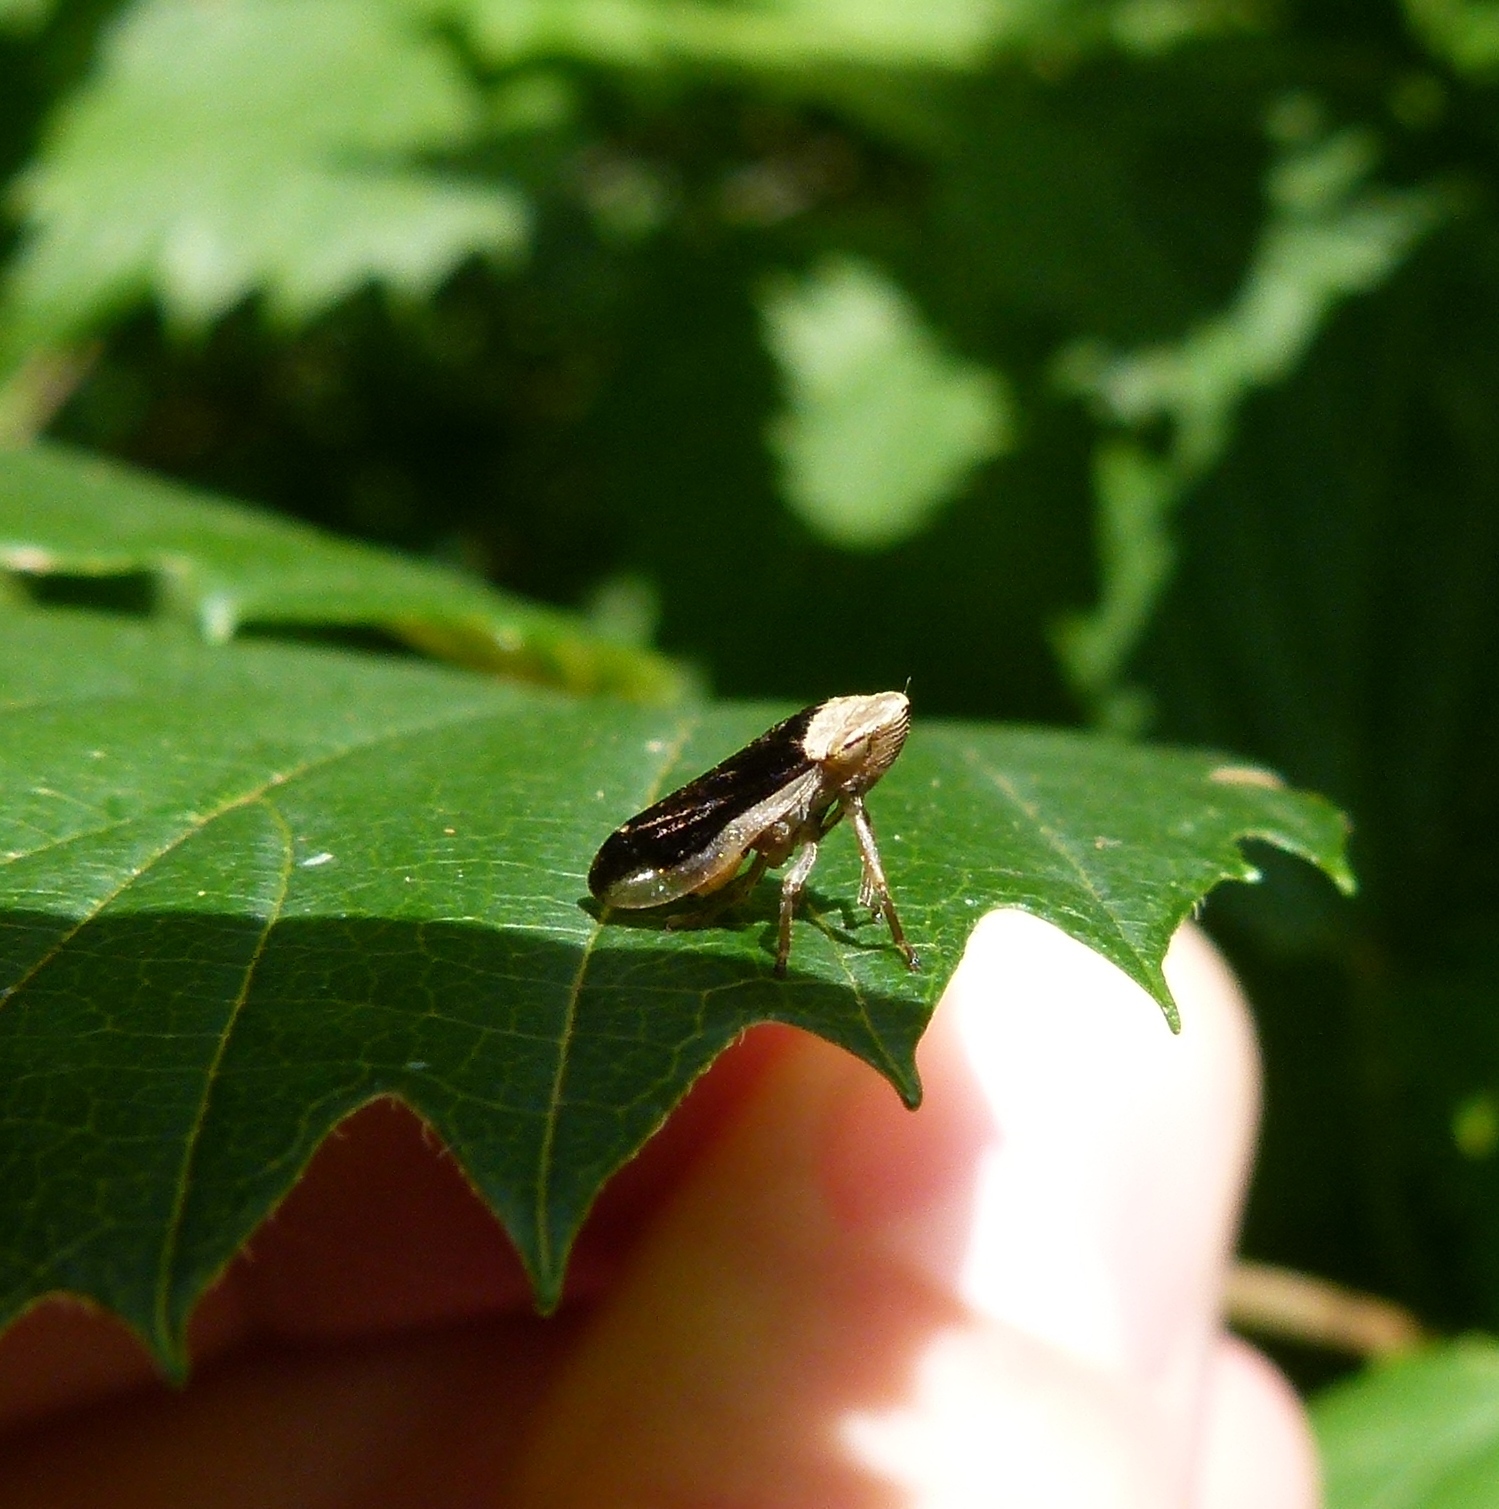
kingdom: Animalia
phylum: Arthropoda
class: Insecta
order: Hemiptera
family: Aphrophoridae
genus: Philaenus
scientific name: Philaenus spumarius
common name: Meadow spittlebug
